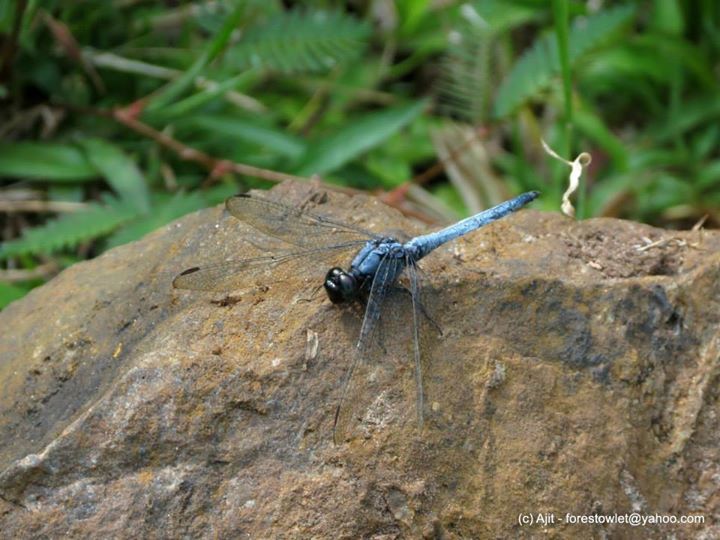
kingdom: Animalia
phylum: Arthropoda
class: Insecta
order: Odonata
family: Libellulidae
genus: Orthetrum
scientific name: Orthetrum glaucum
